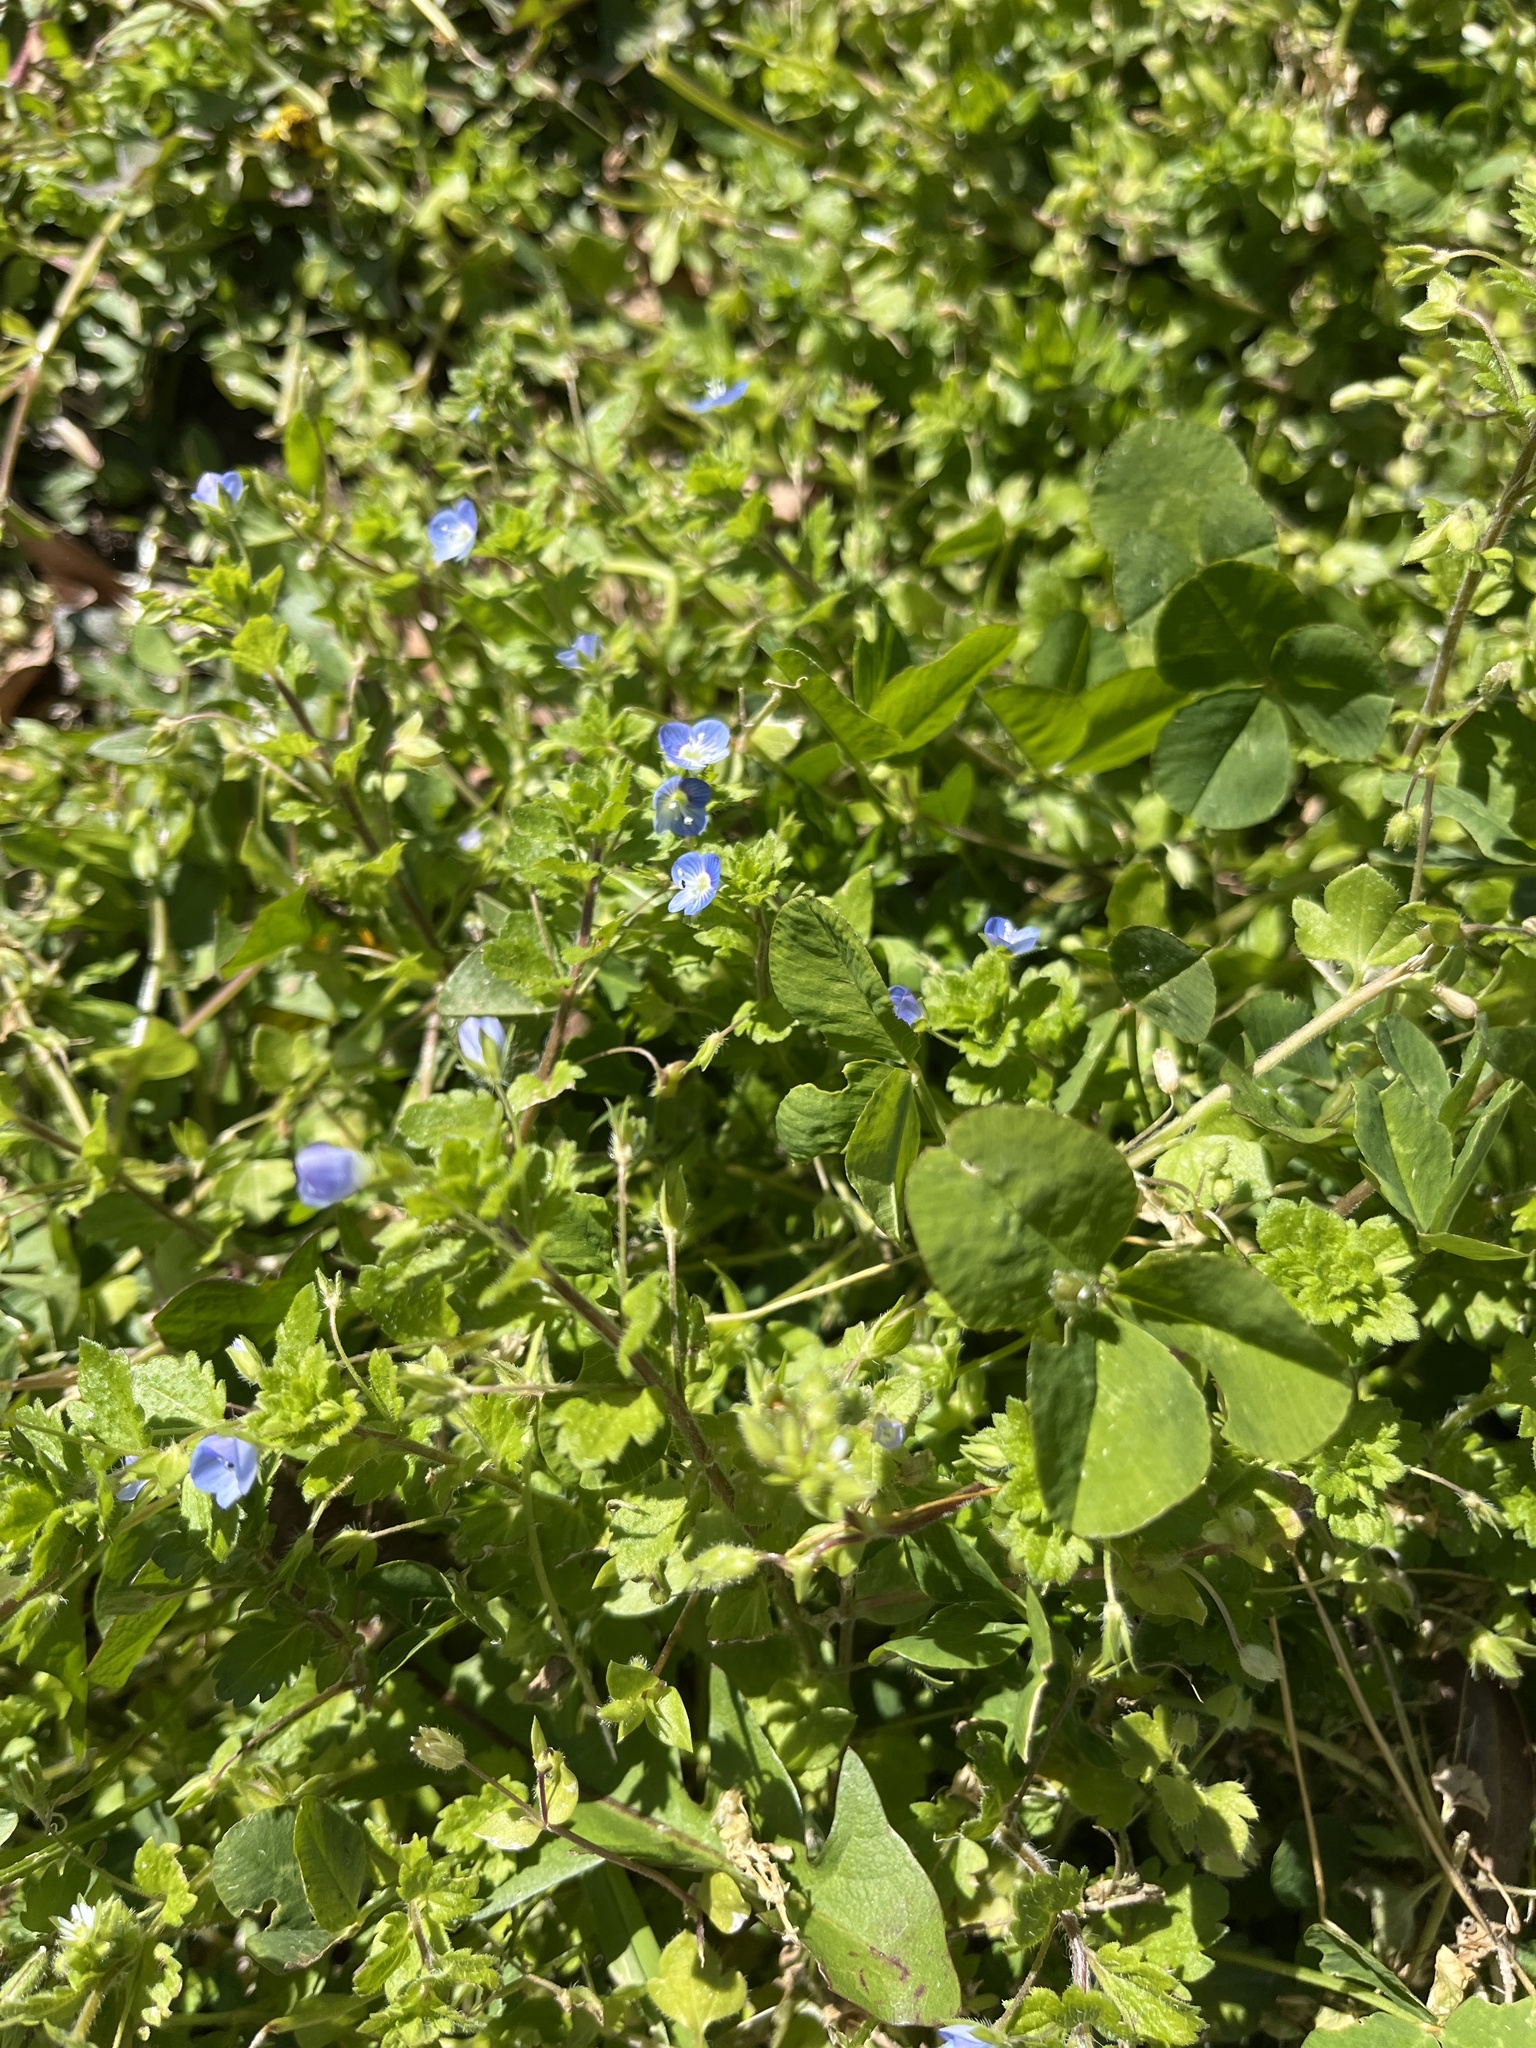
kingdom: Plantae
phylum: Tracheophyta
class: Magnoliopsida
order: Lamiales
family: Plantaginaceae
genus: Veronica
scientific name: Veronica persica
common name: Common field-speedwell
